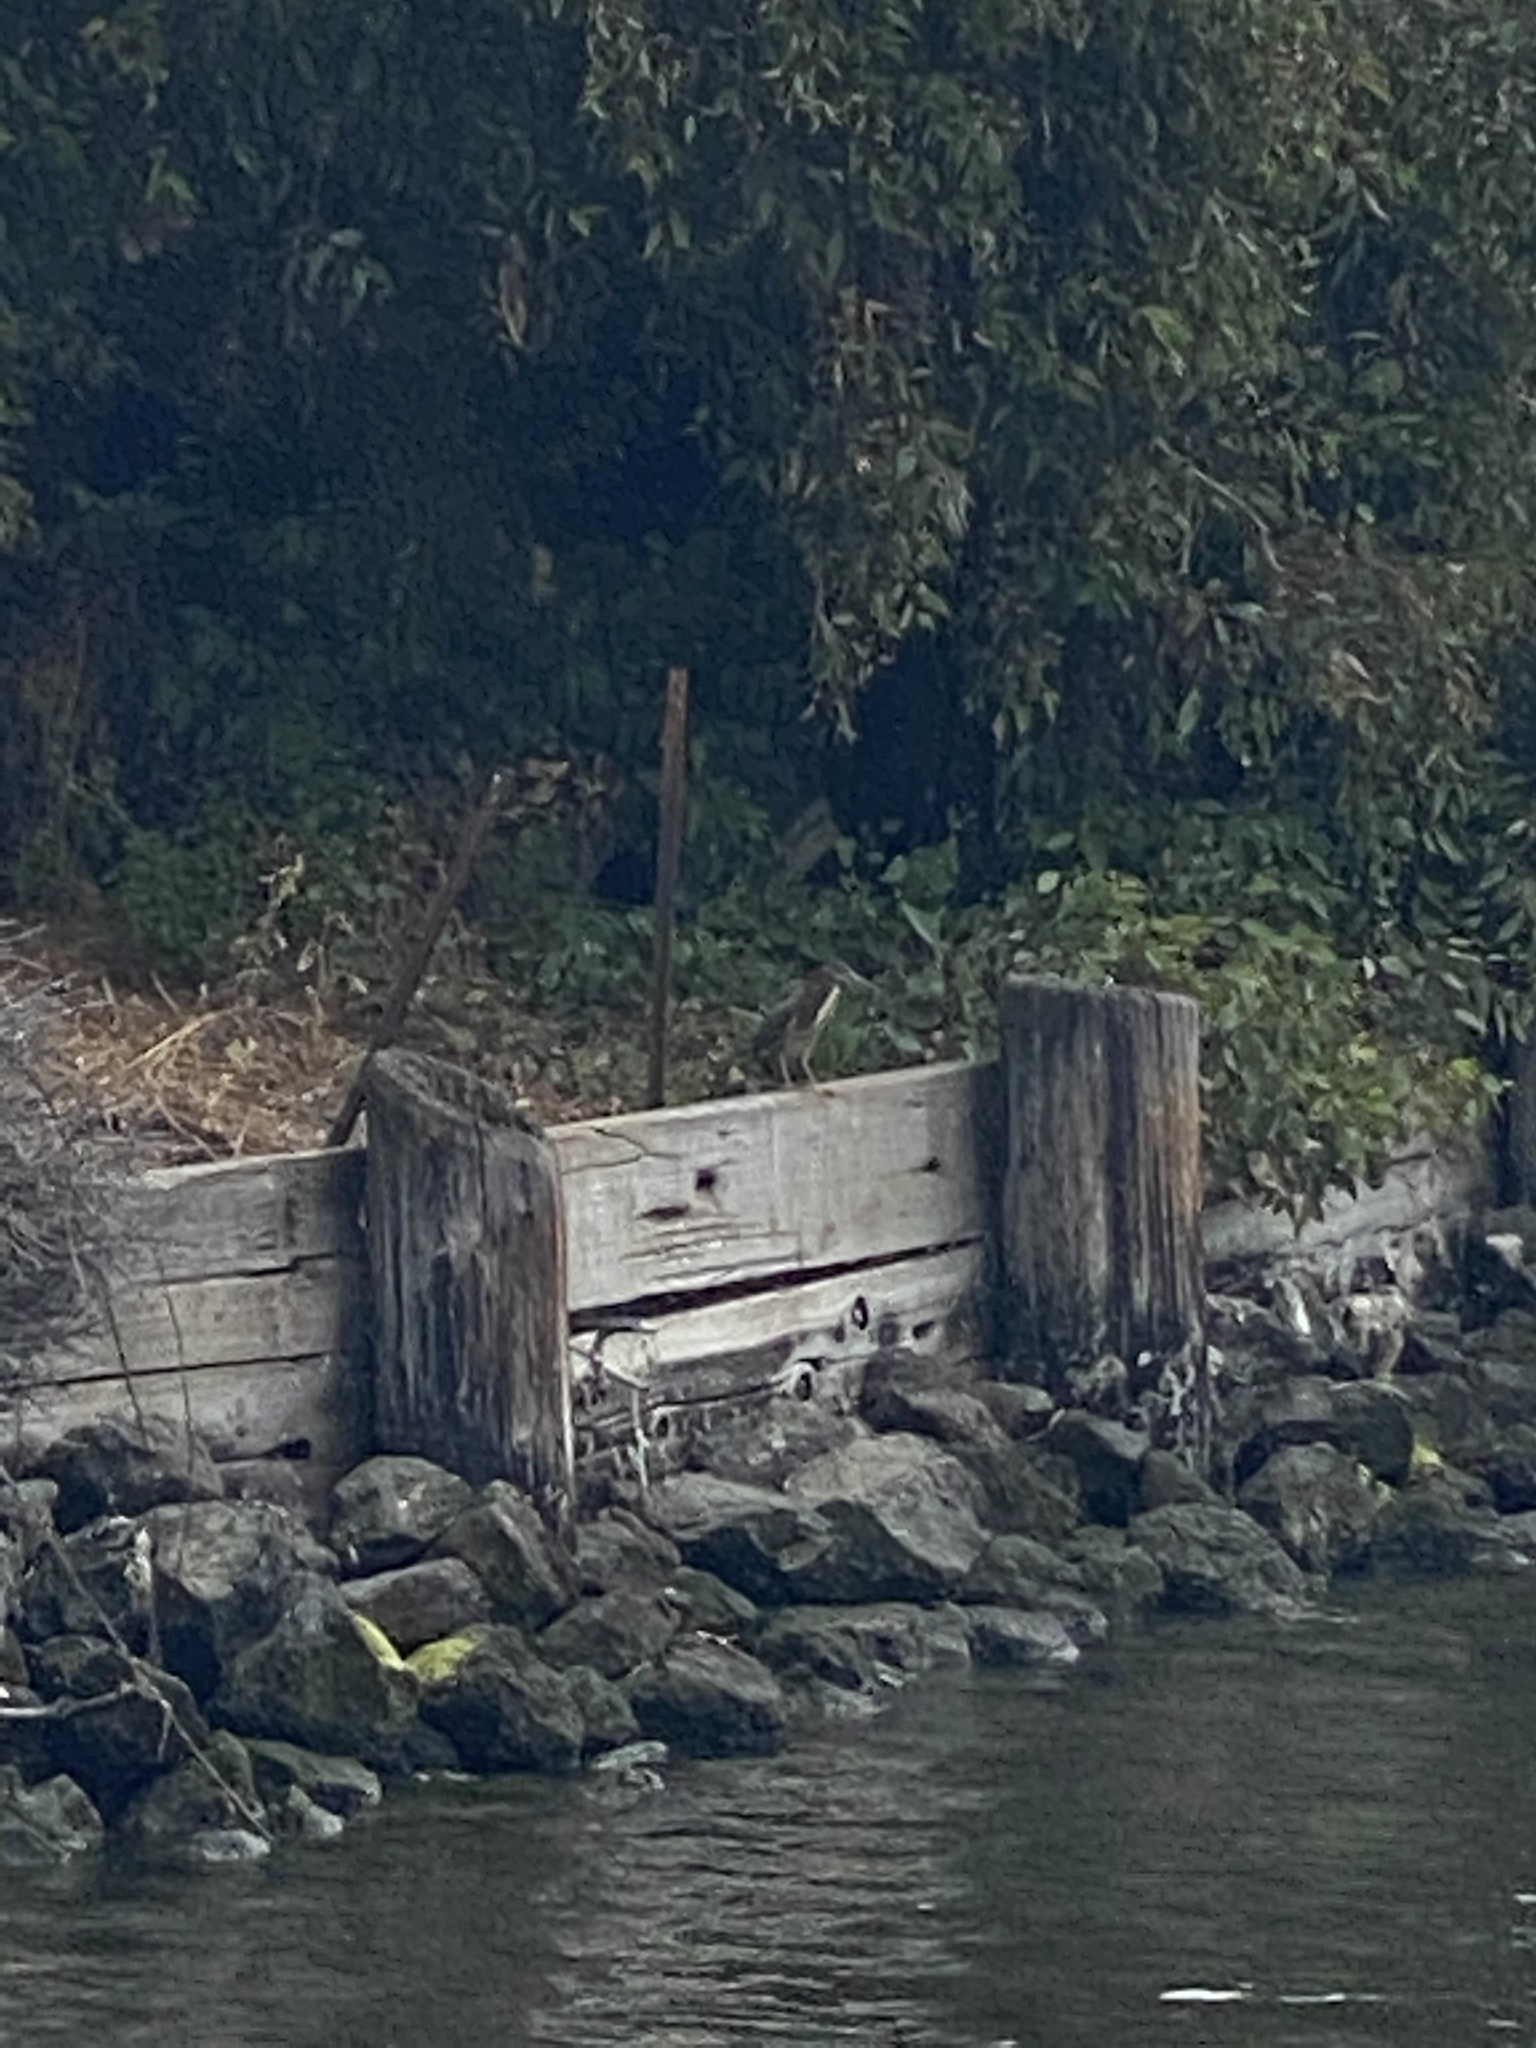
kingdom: Animalia
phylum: Chordata
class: Aves
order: Pelecaniformes
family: Ardeidae
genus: Butorides
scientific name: Butorides virescens
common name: Green heron
